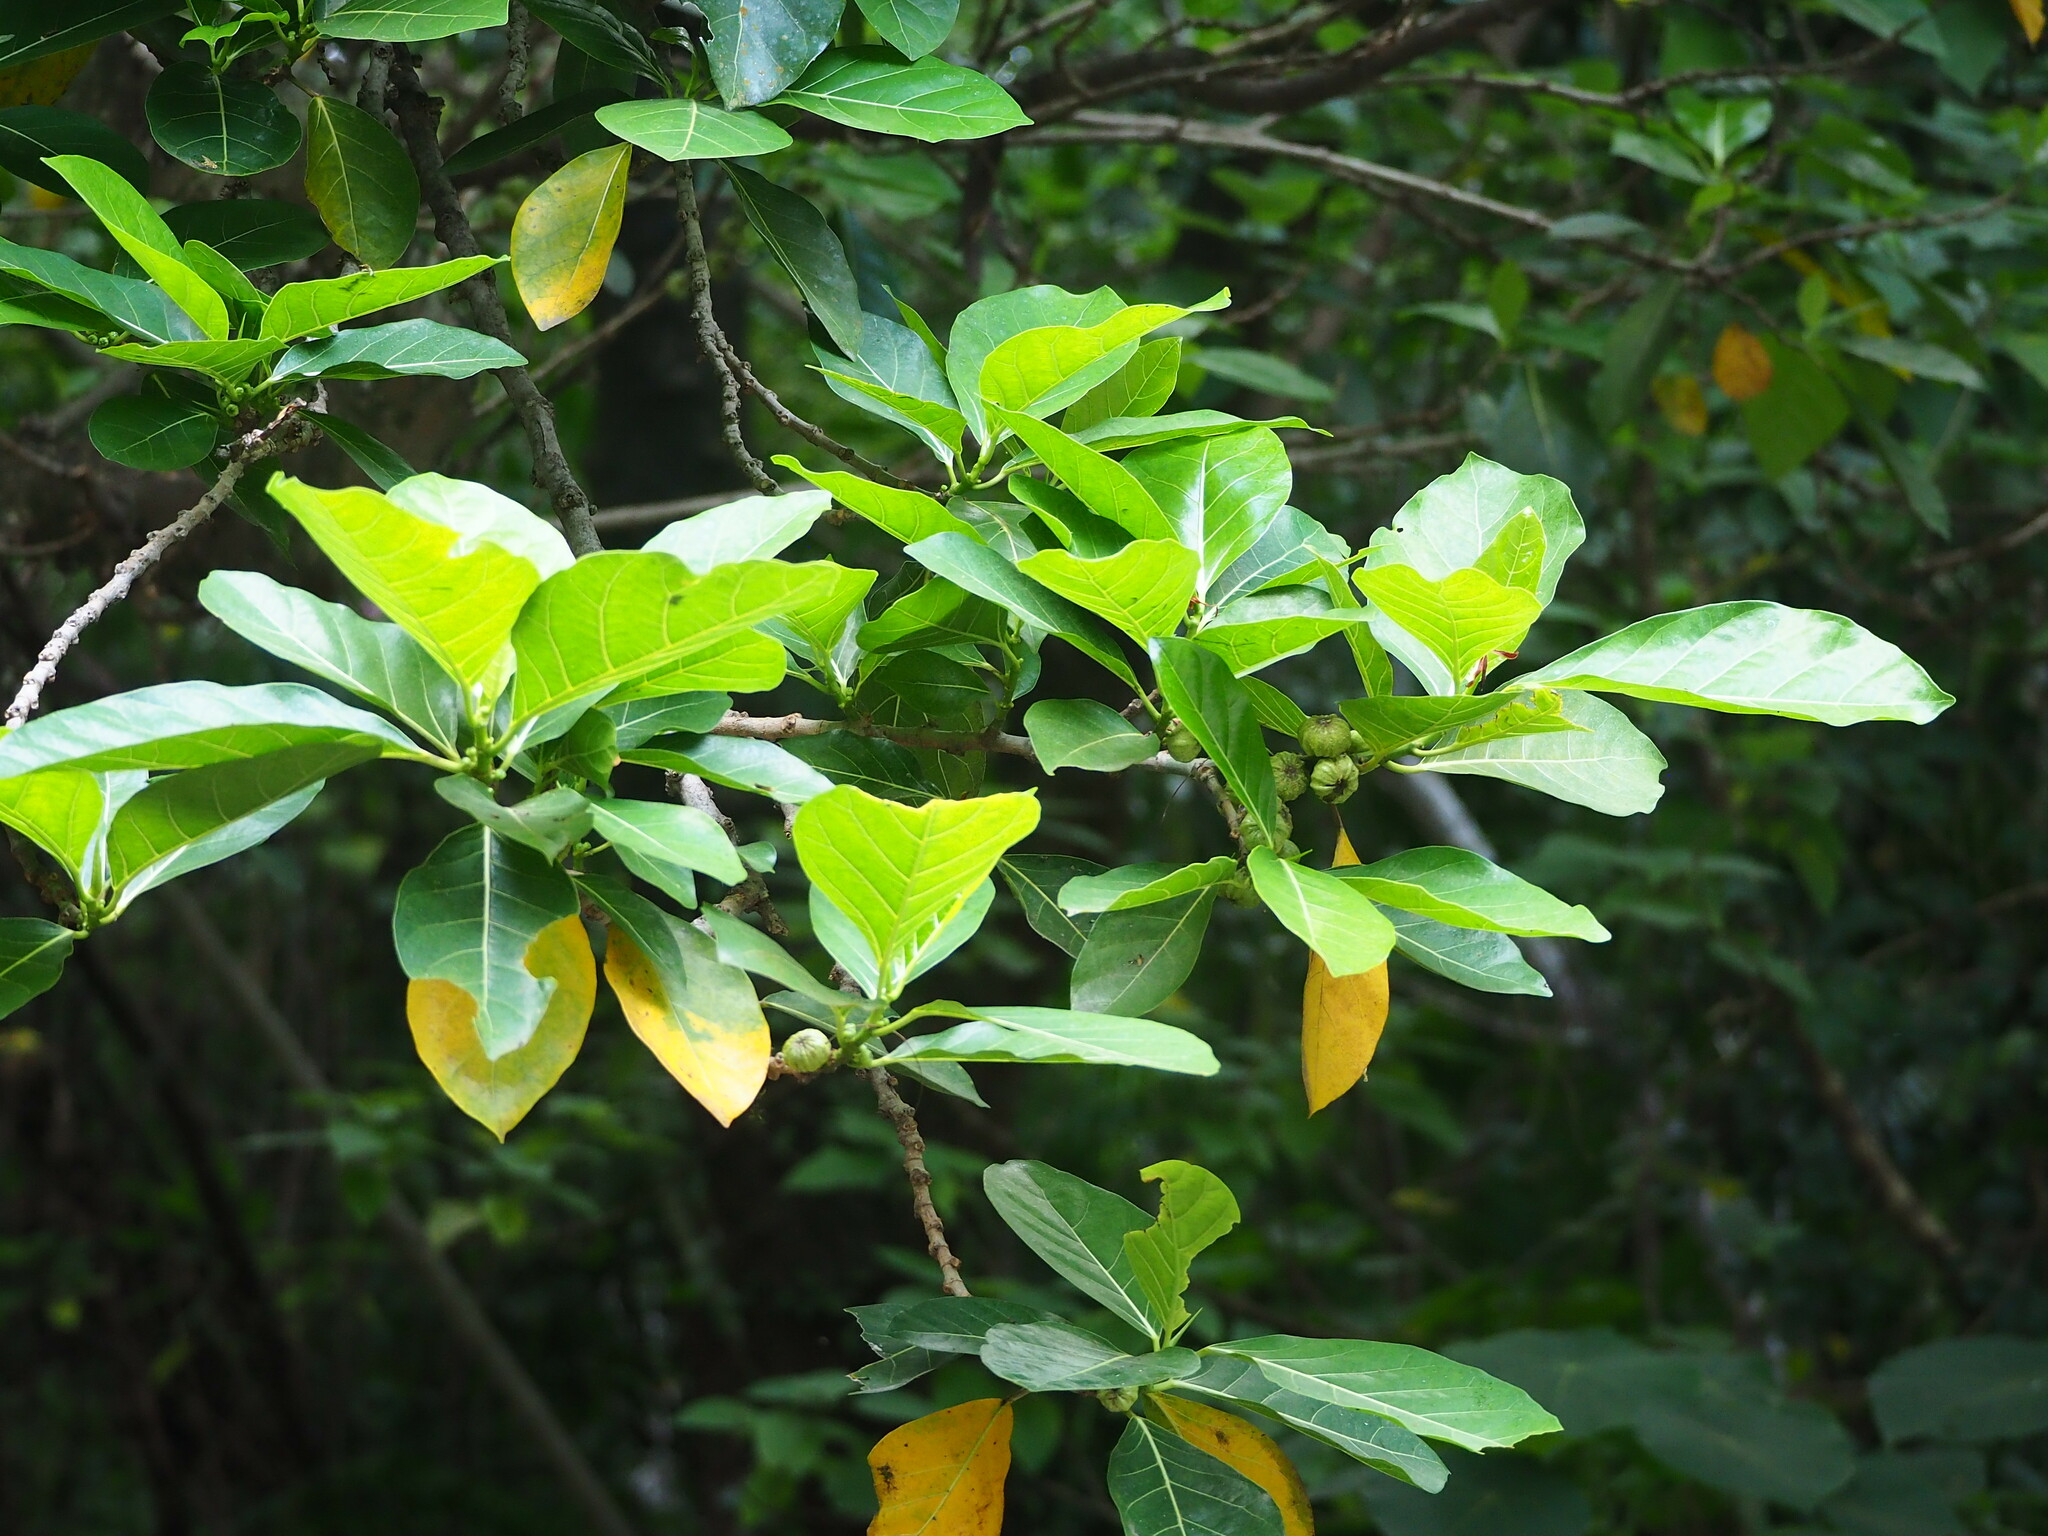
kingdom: Plantae
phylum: Tracheophyta
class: Magnoliopsida
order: Rosales
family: Moraceae
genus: Ficus
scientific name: Ficus septica
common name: Septic fig
